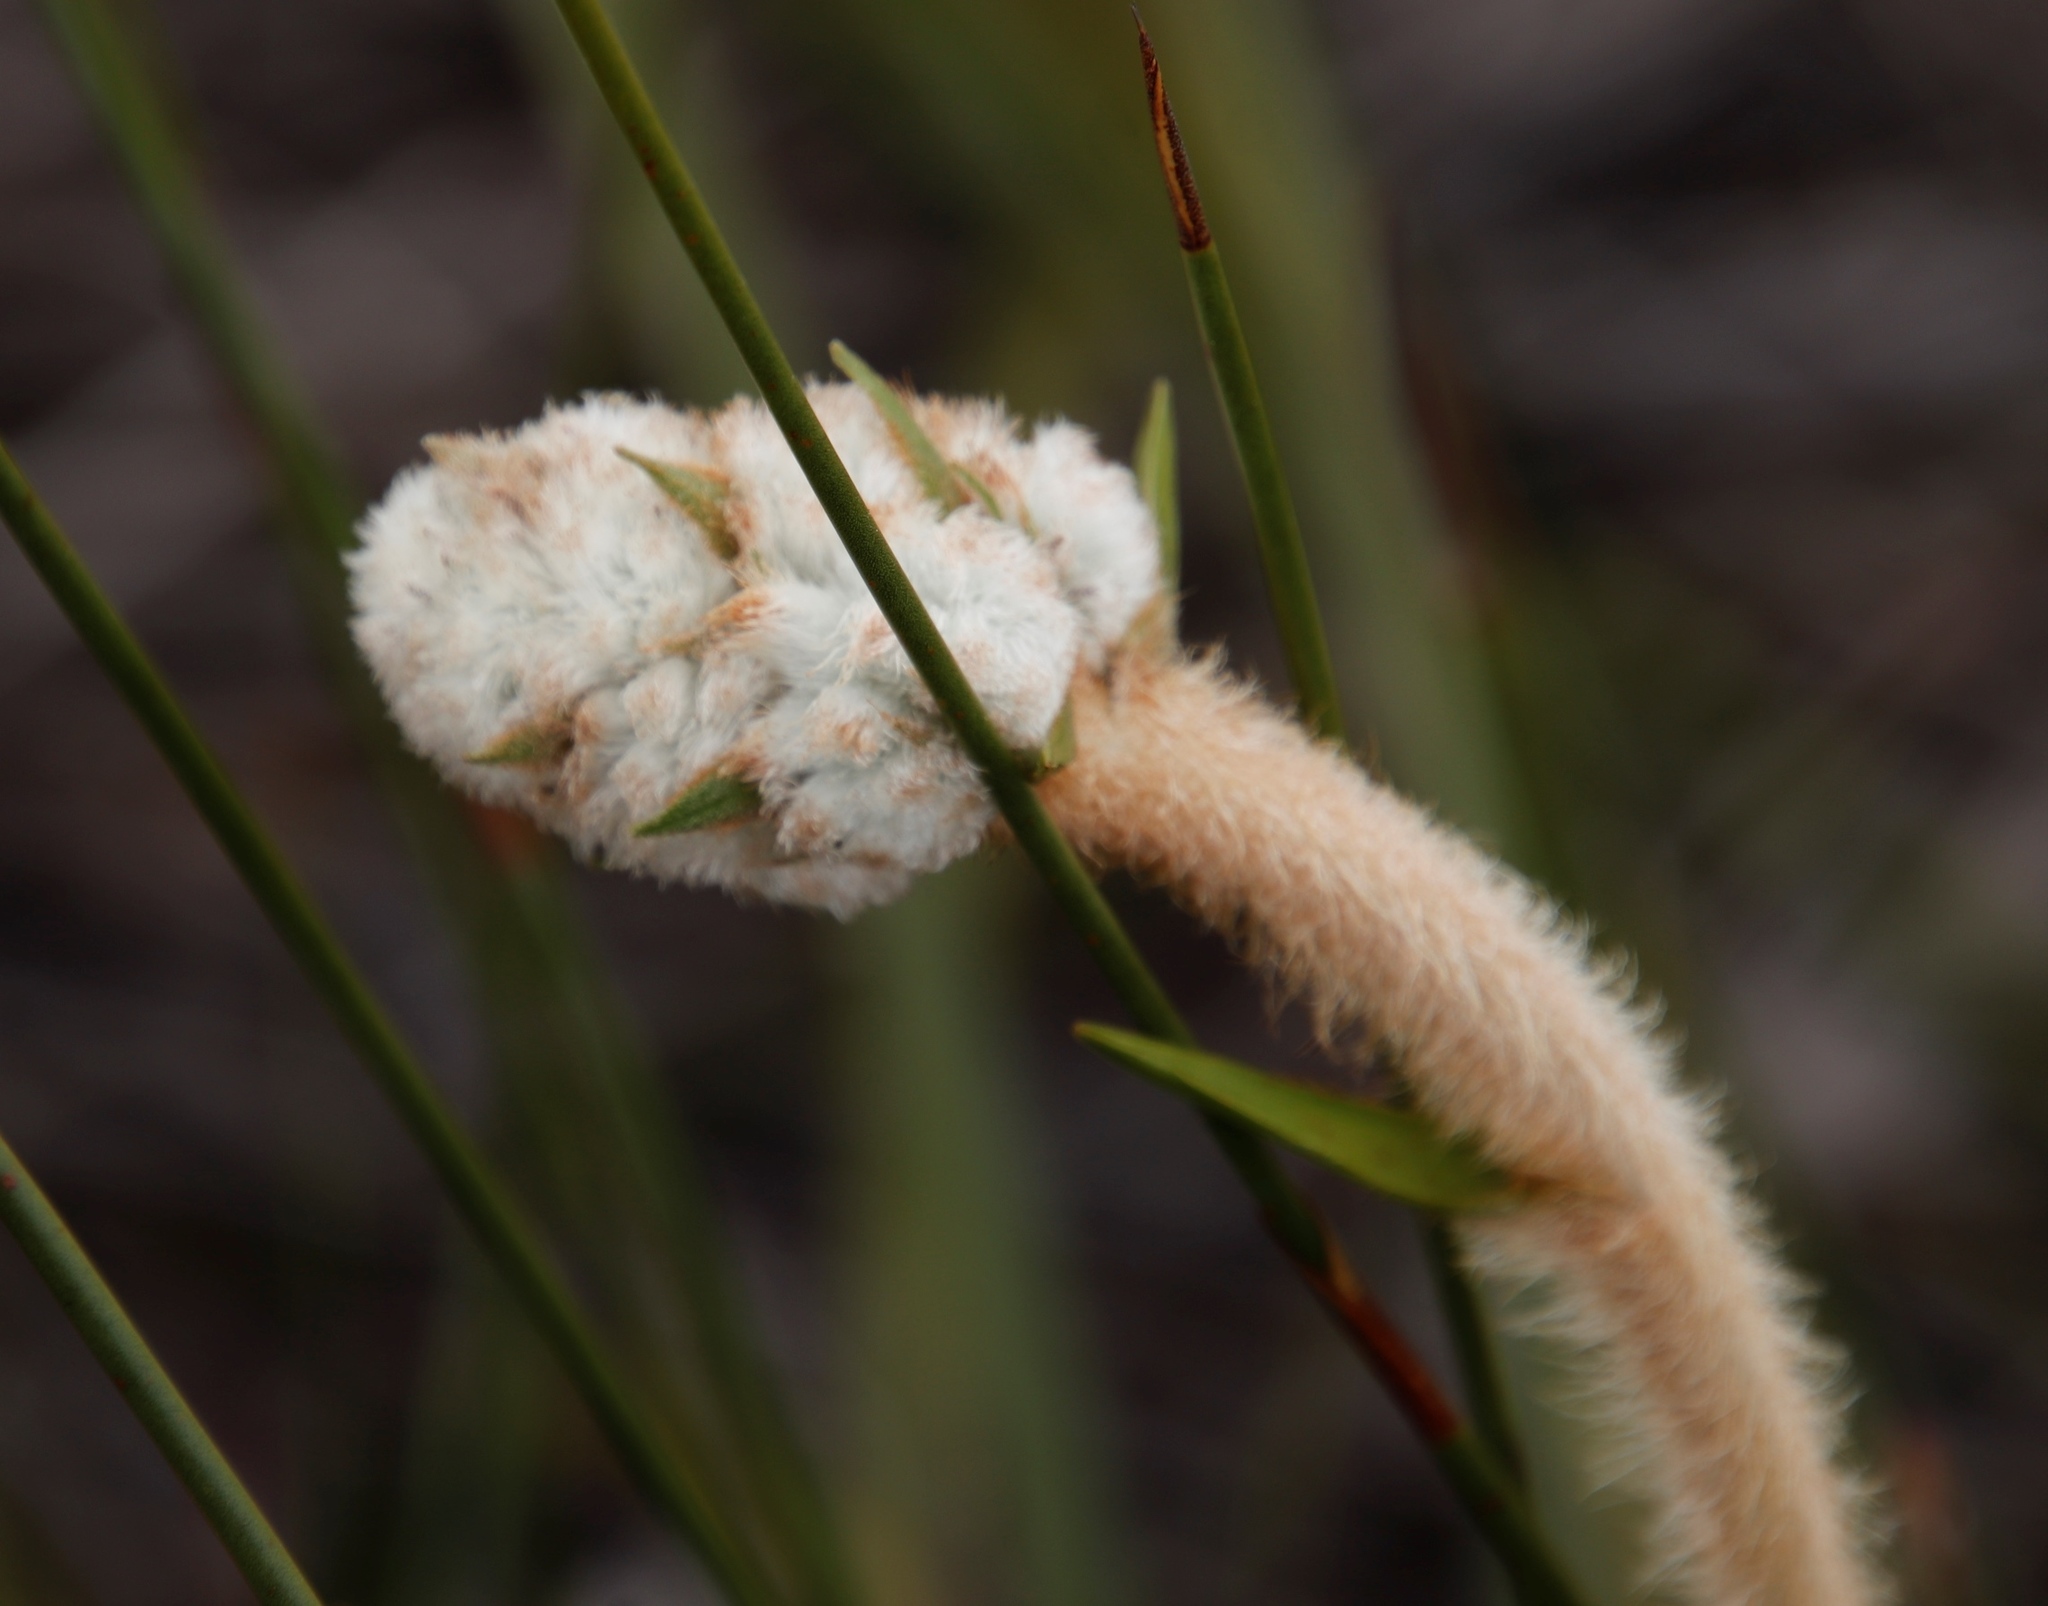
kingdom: Plantae
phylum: Tracheophyta
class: Liliopsida
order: Asparagales
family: Lanariaceae
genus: Lanaria
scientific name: Lanaria lanata
